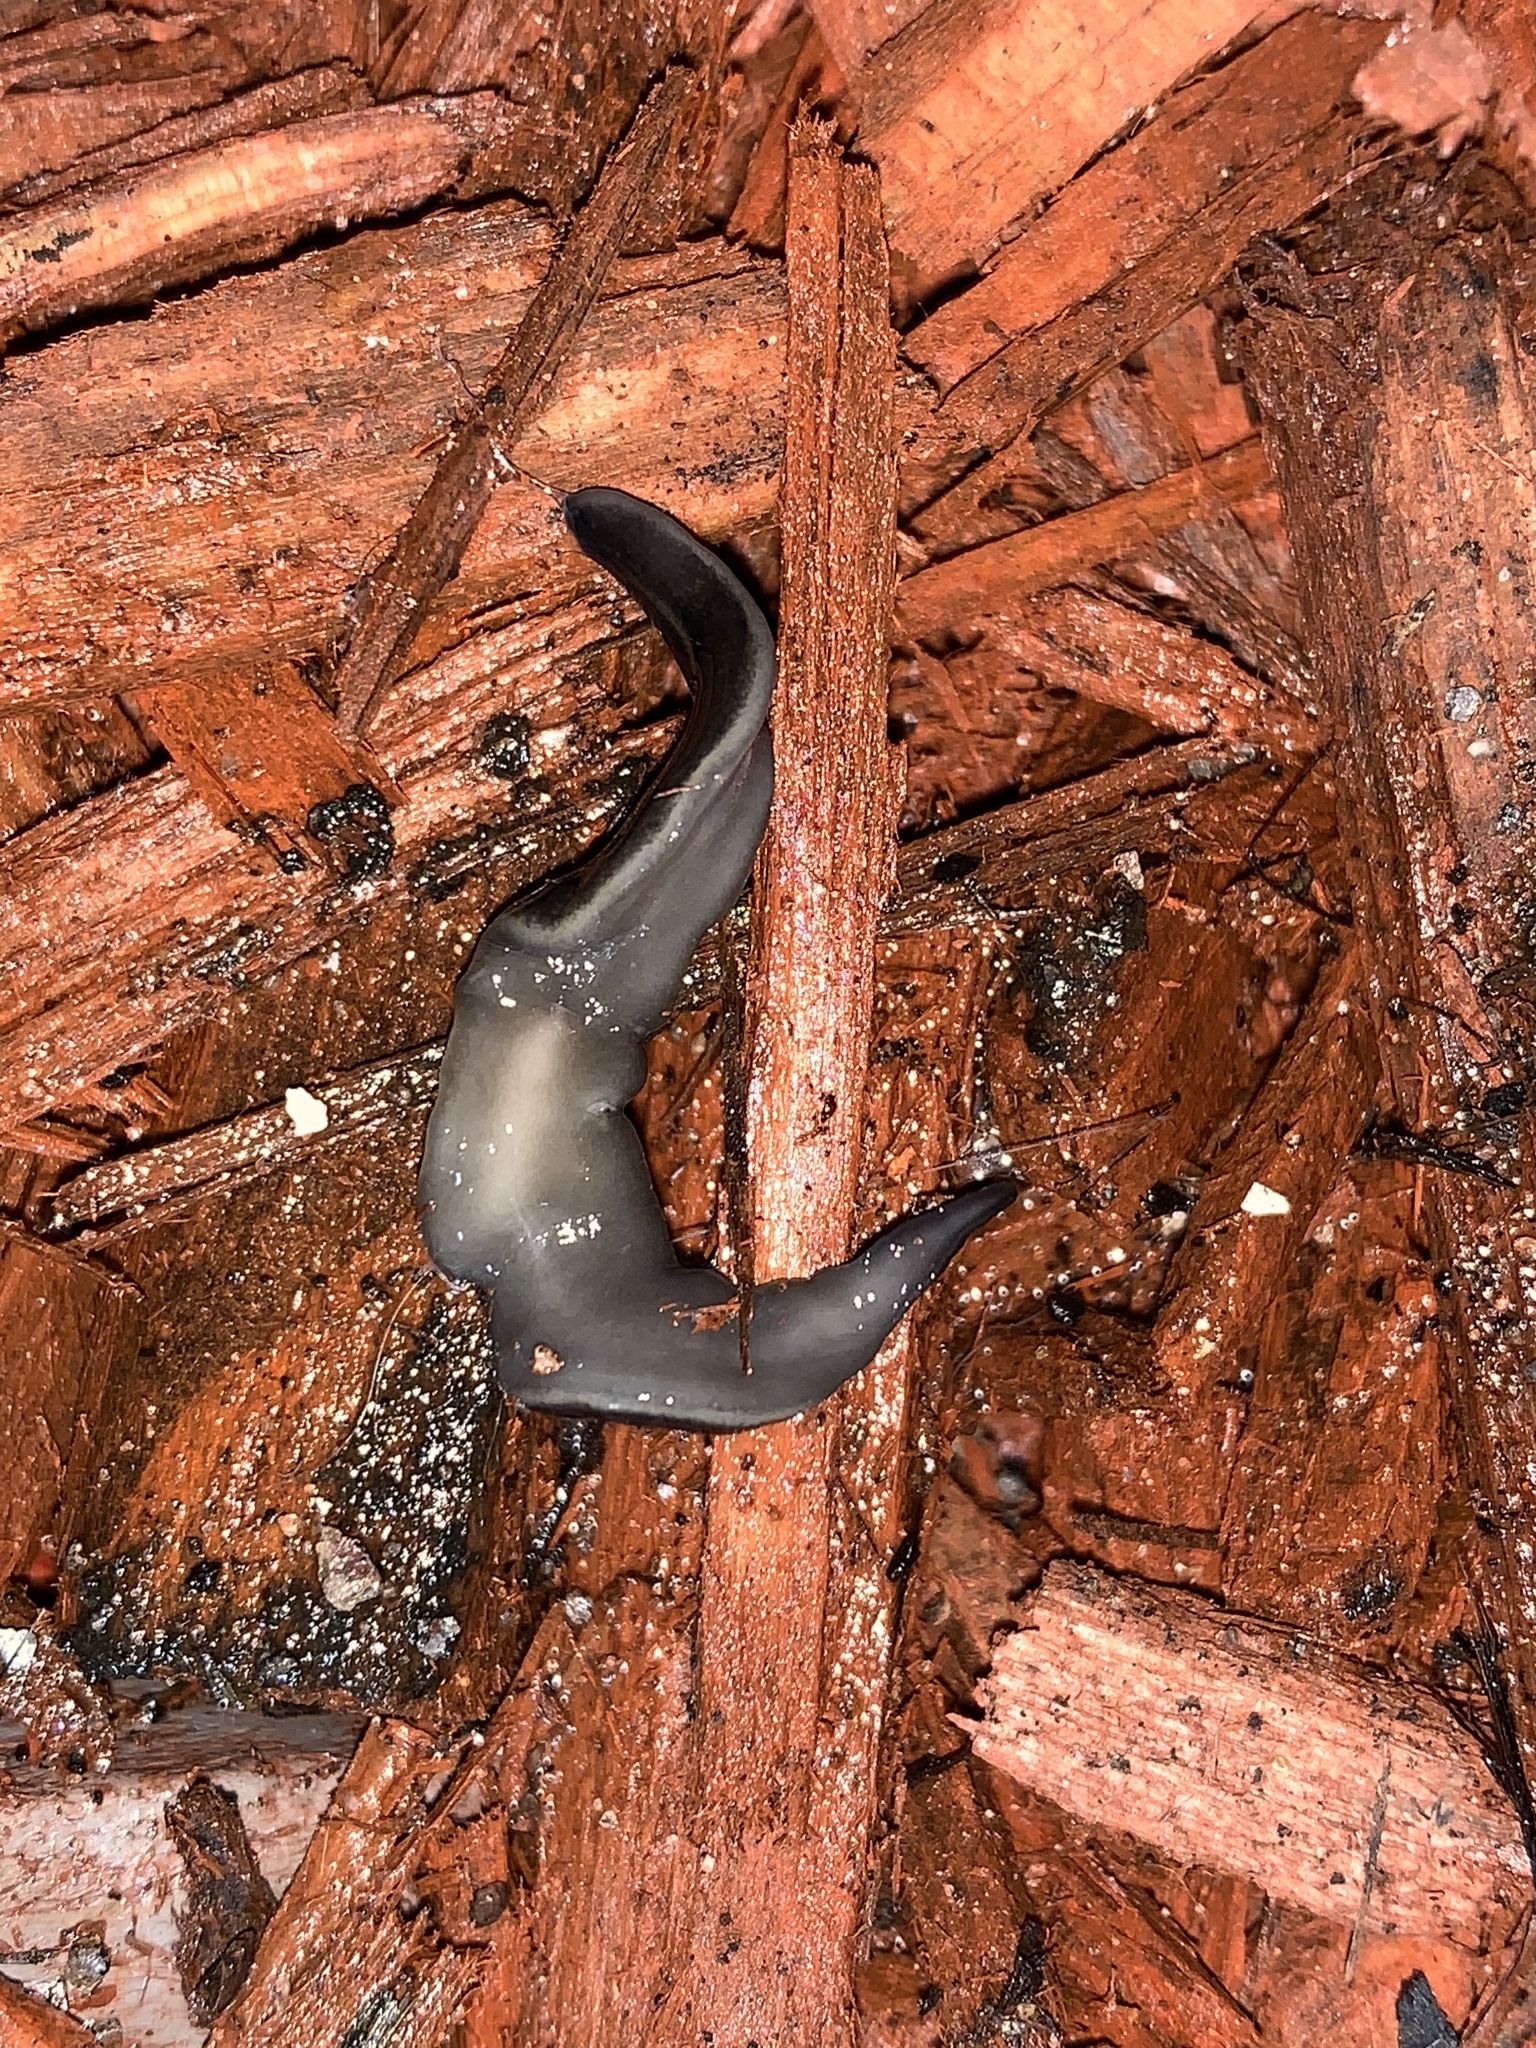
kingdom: Animalia
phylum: Platyhelminthes
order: Tricladida
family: Geoplanidae
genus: Platydemus
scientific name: Platydemus manokwari
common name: New guinea flatworm
